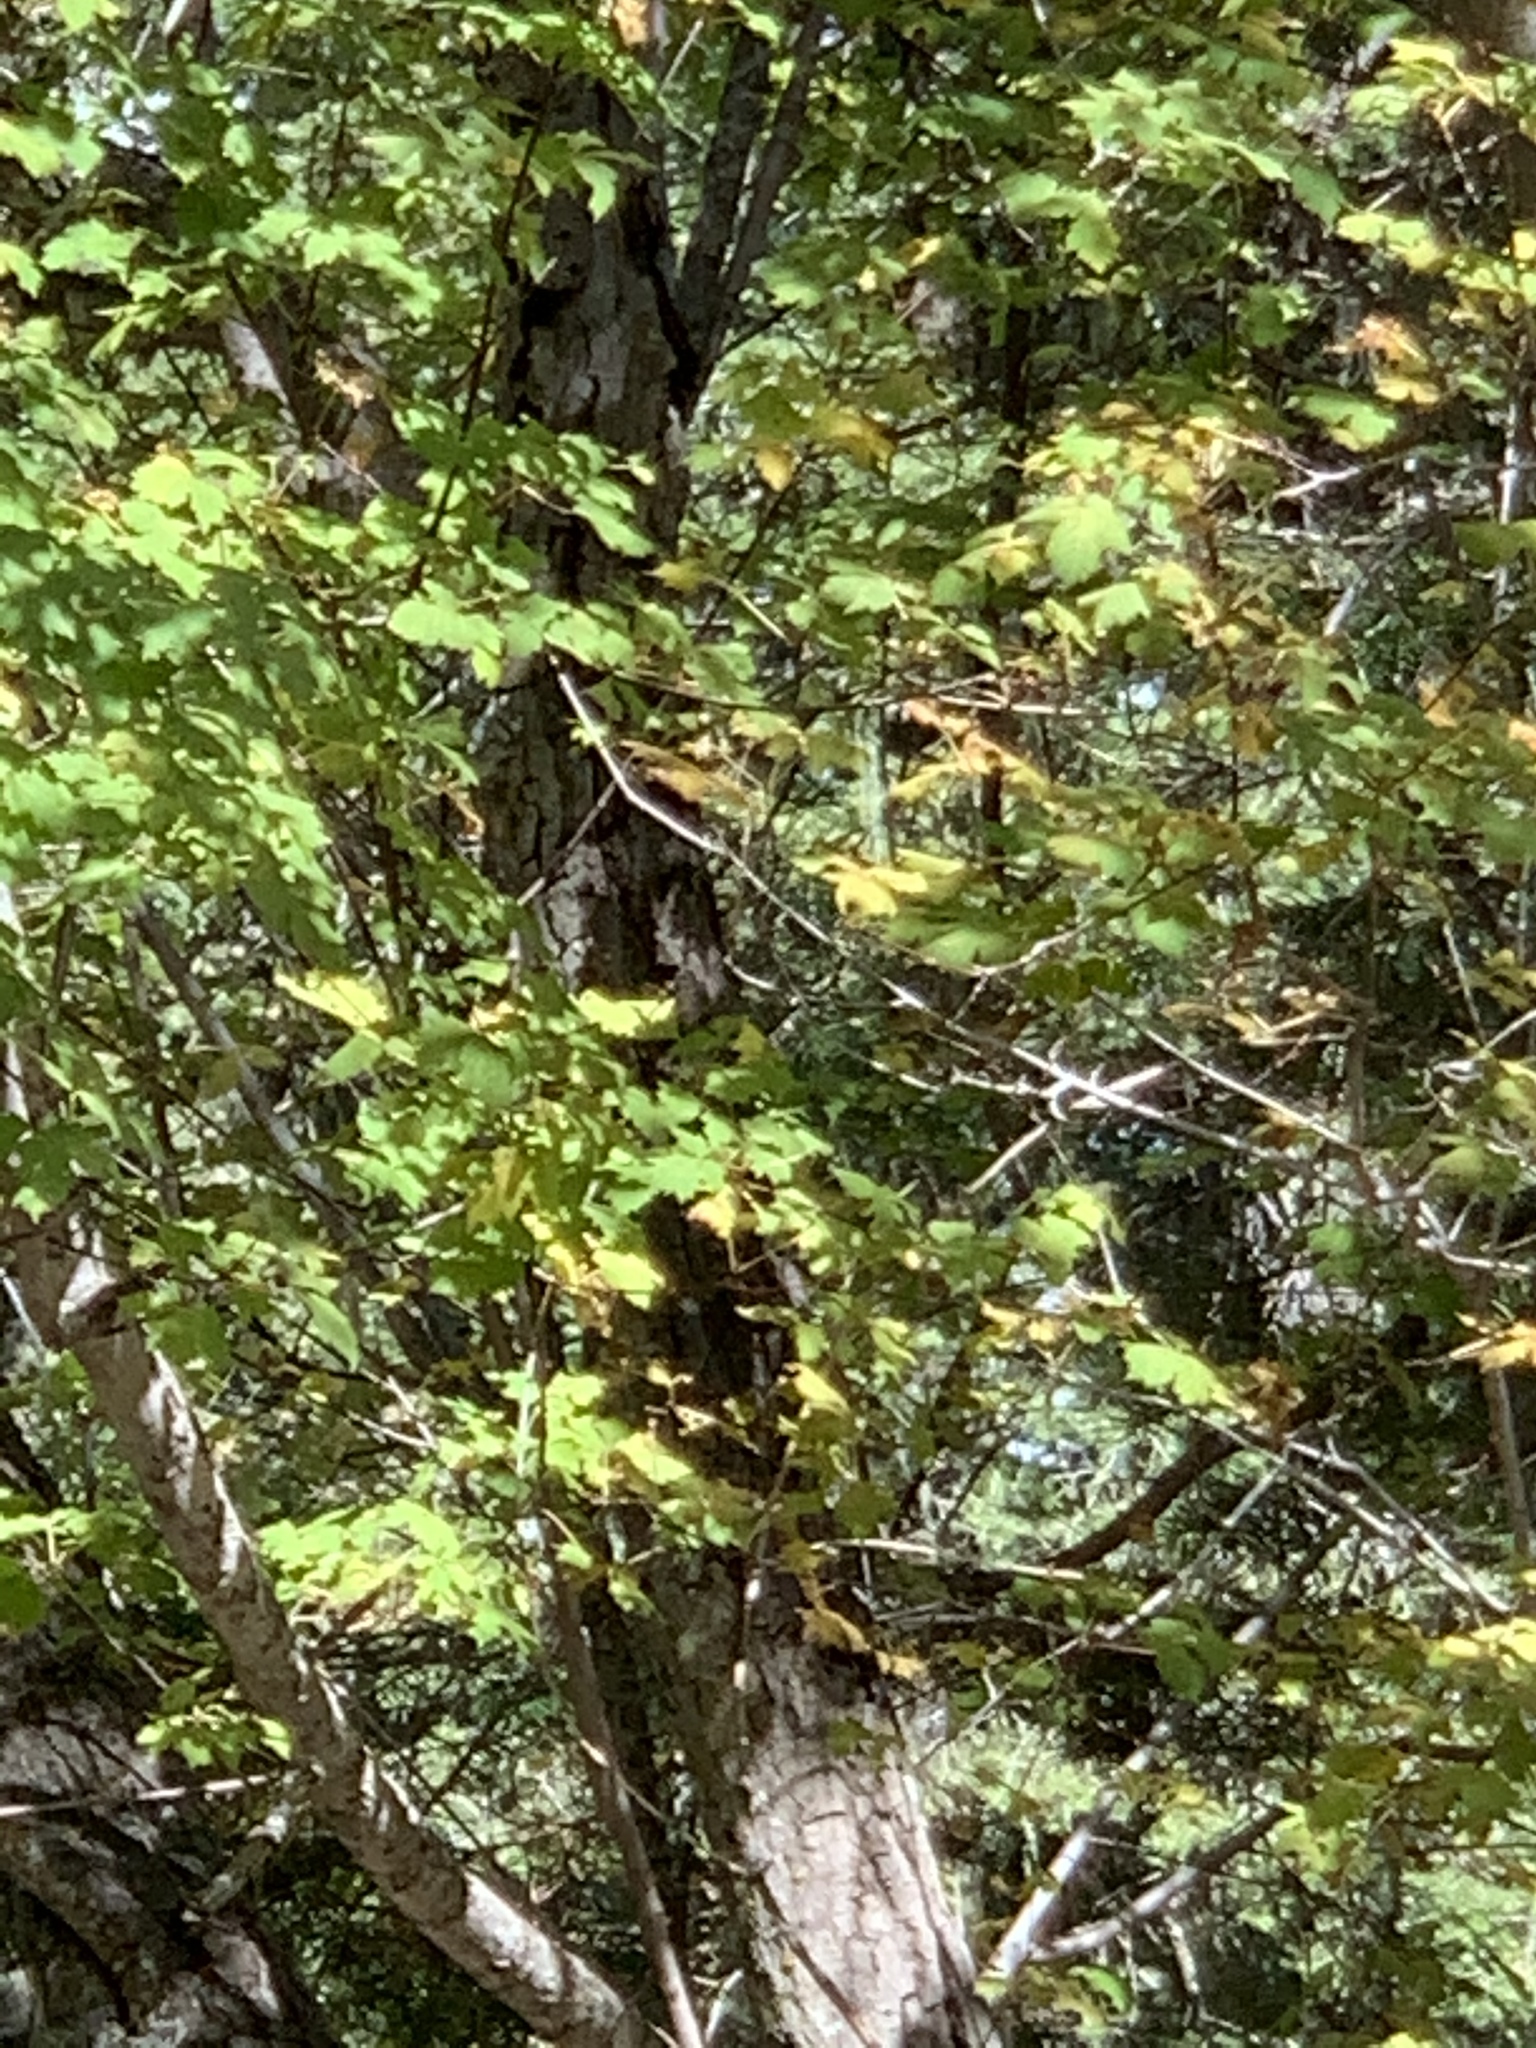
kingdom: Plantae
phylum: Tracheophyta
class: Magnoliopsida
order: Sapindales
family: Sapindaceae
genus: Acer
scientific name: Acer negundo
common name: Ashleaf maple
